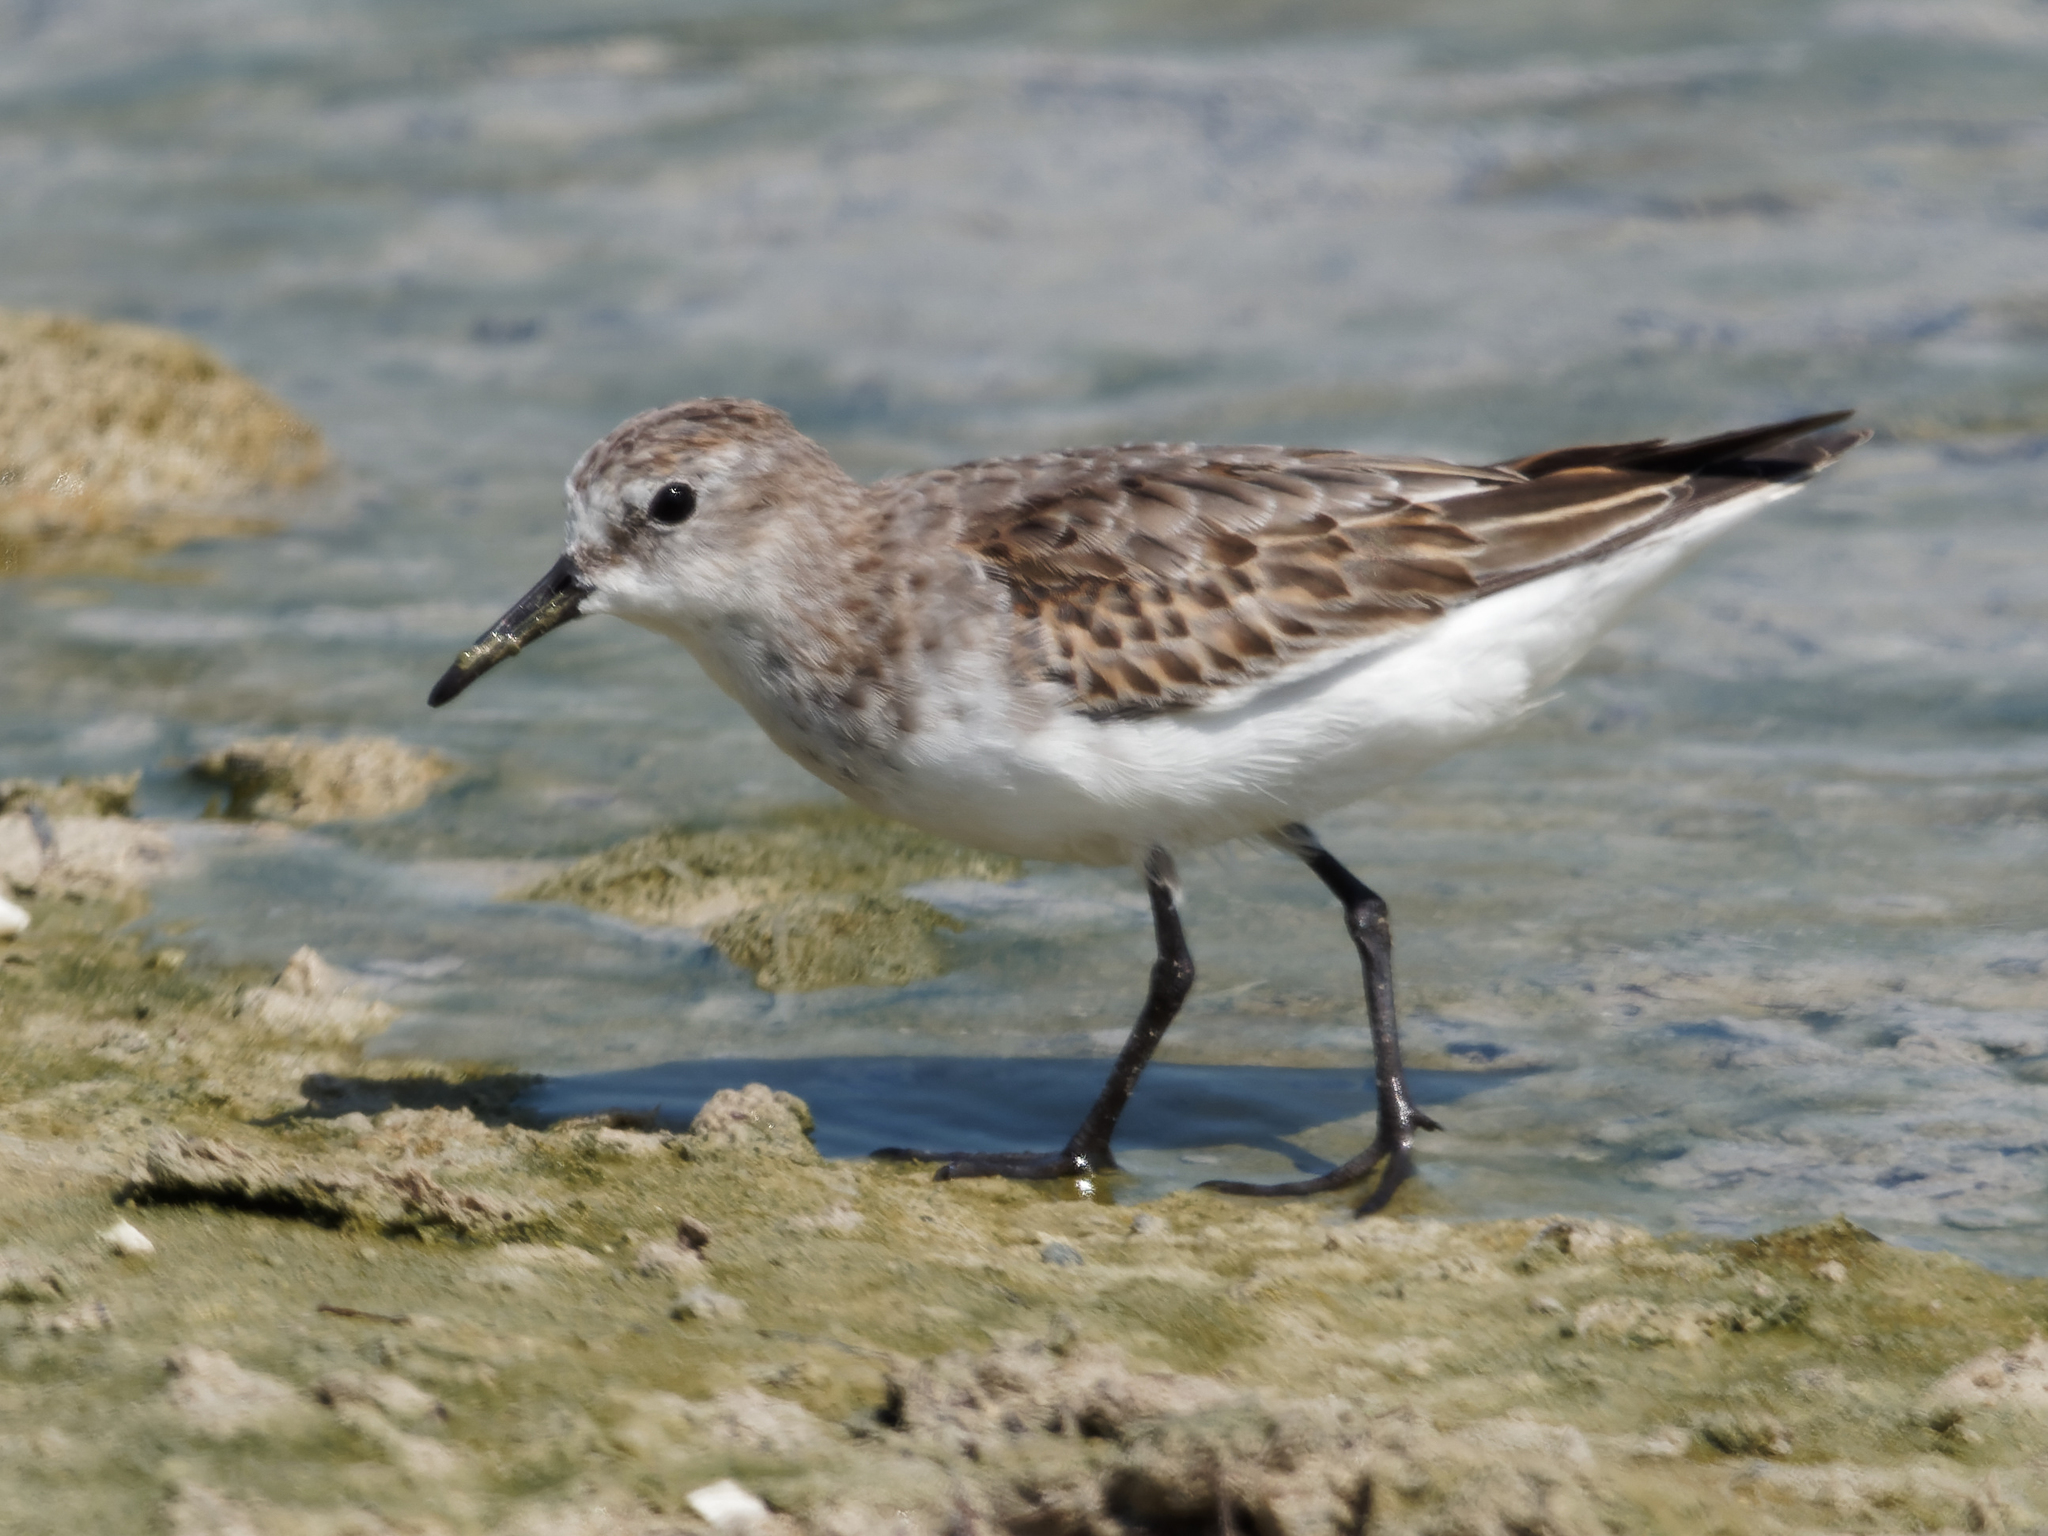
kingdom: Animalia
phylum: Chordata
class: Aves
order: Charadriiformes
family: Scolopacidae
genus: Calidris
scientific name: Calidris minuta
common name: Little stint
